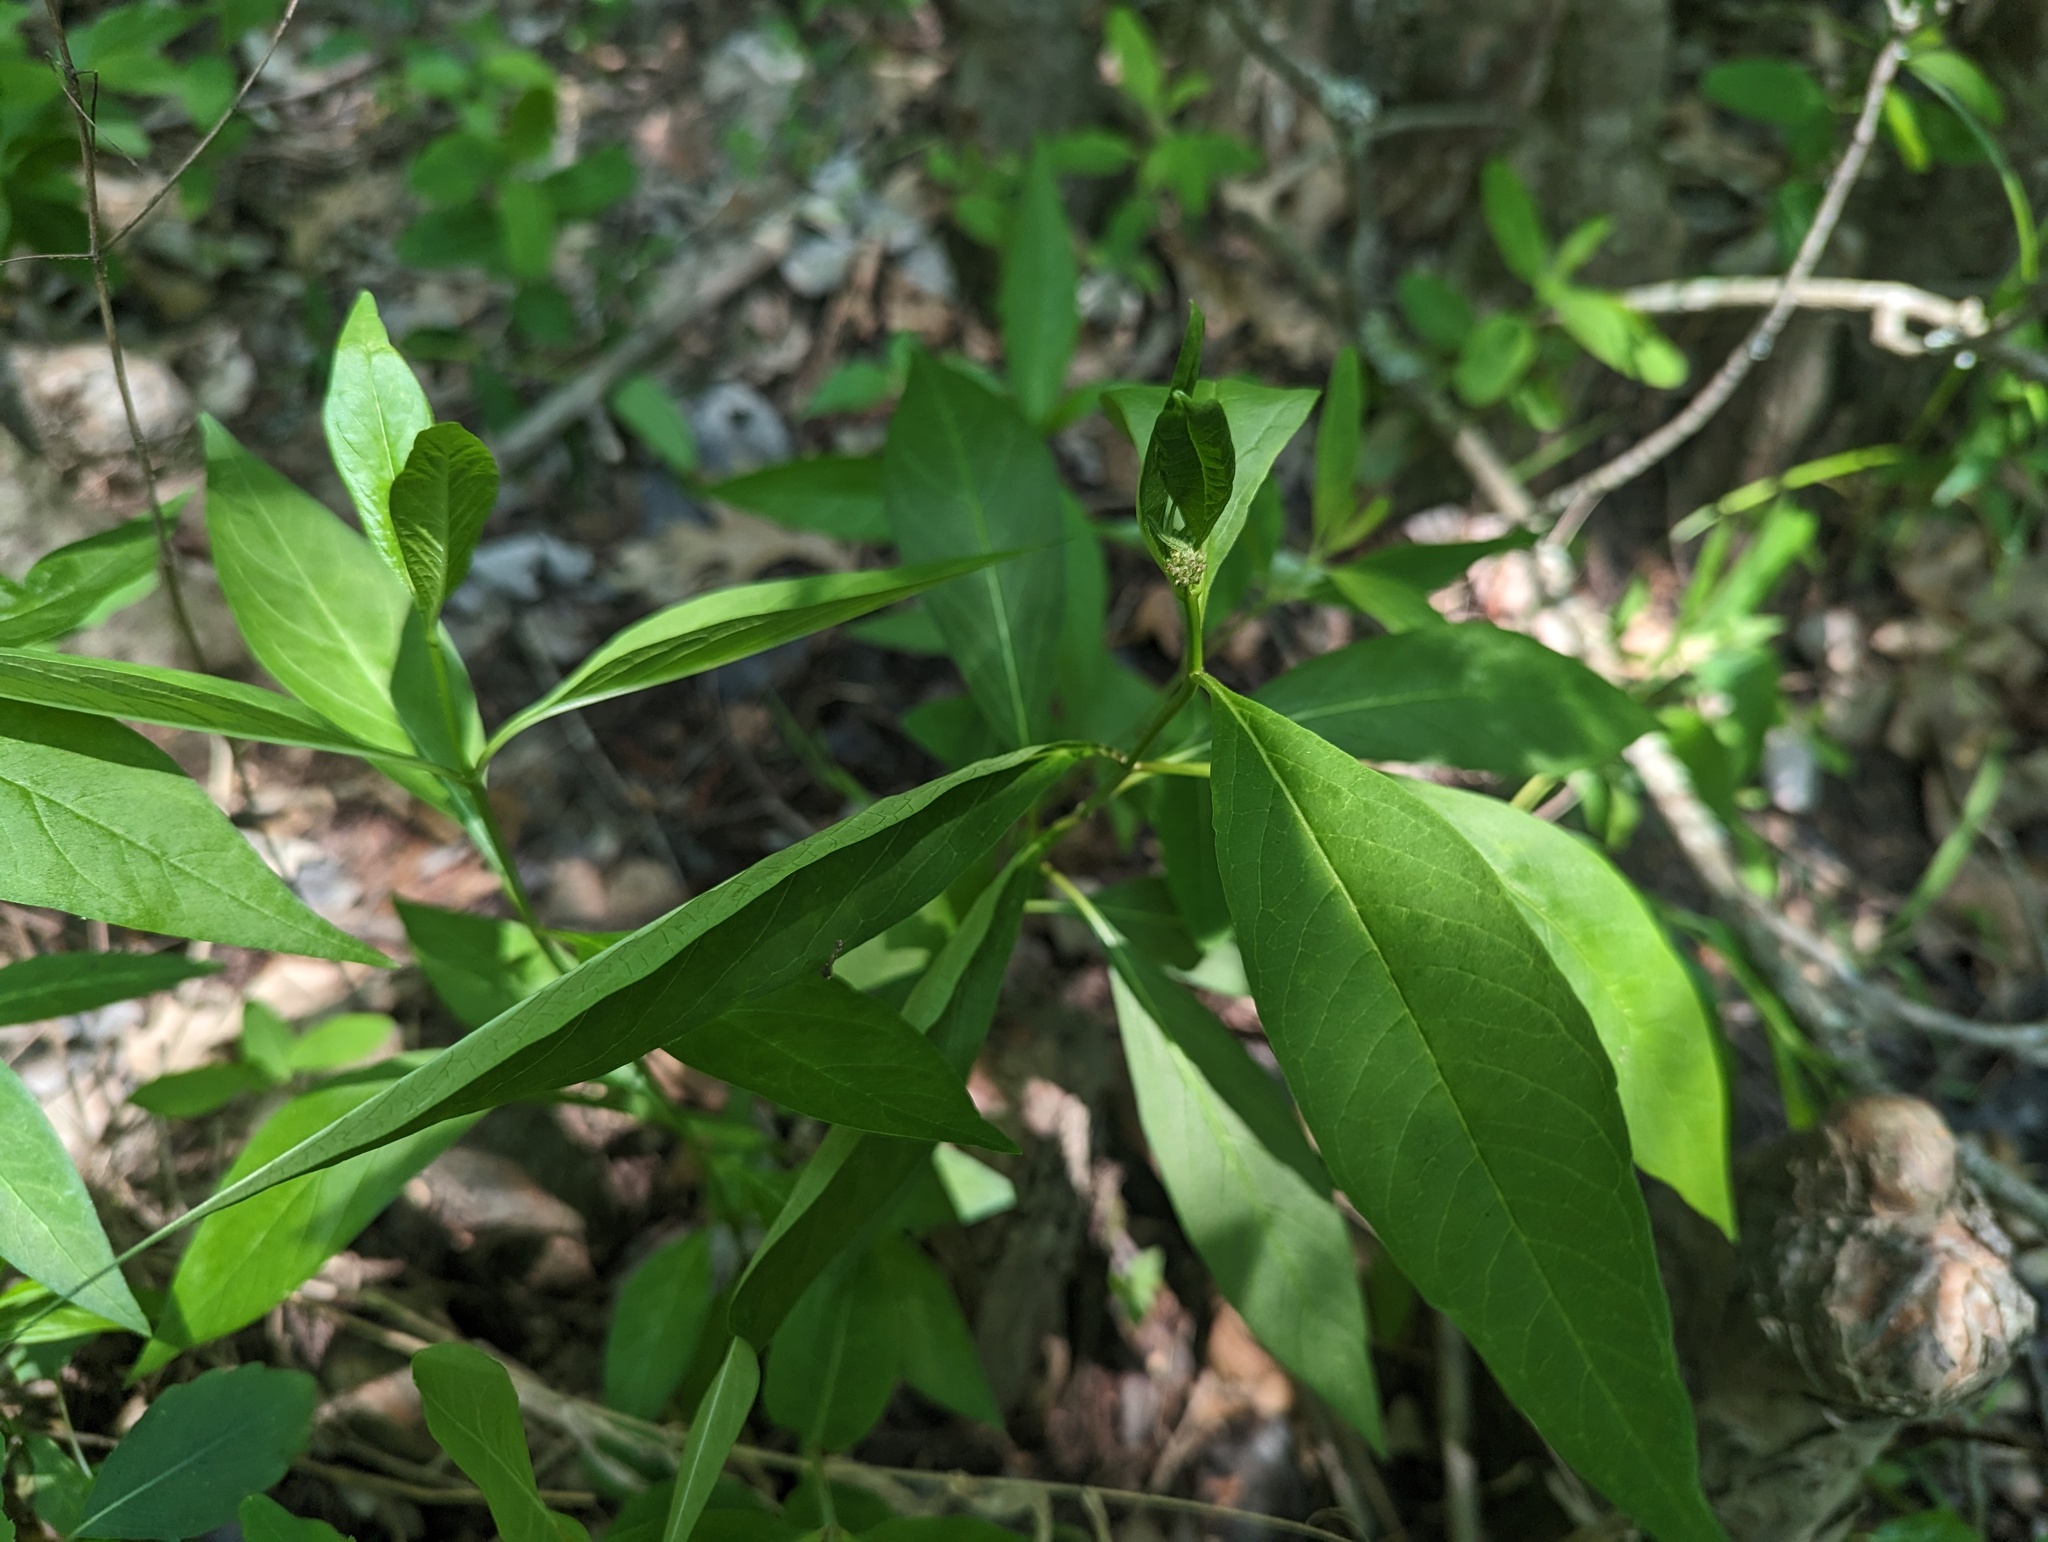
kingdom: Plantae
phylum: Tracheophyta
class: Magnoliopsida
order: Gentianales
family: Apocynaceae
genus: Asclepias
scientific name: Asclepias perennis
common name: Smooth-seed milkweed
